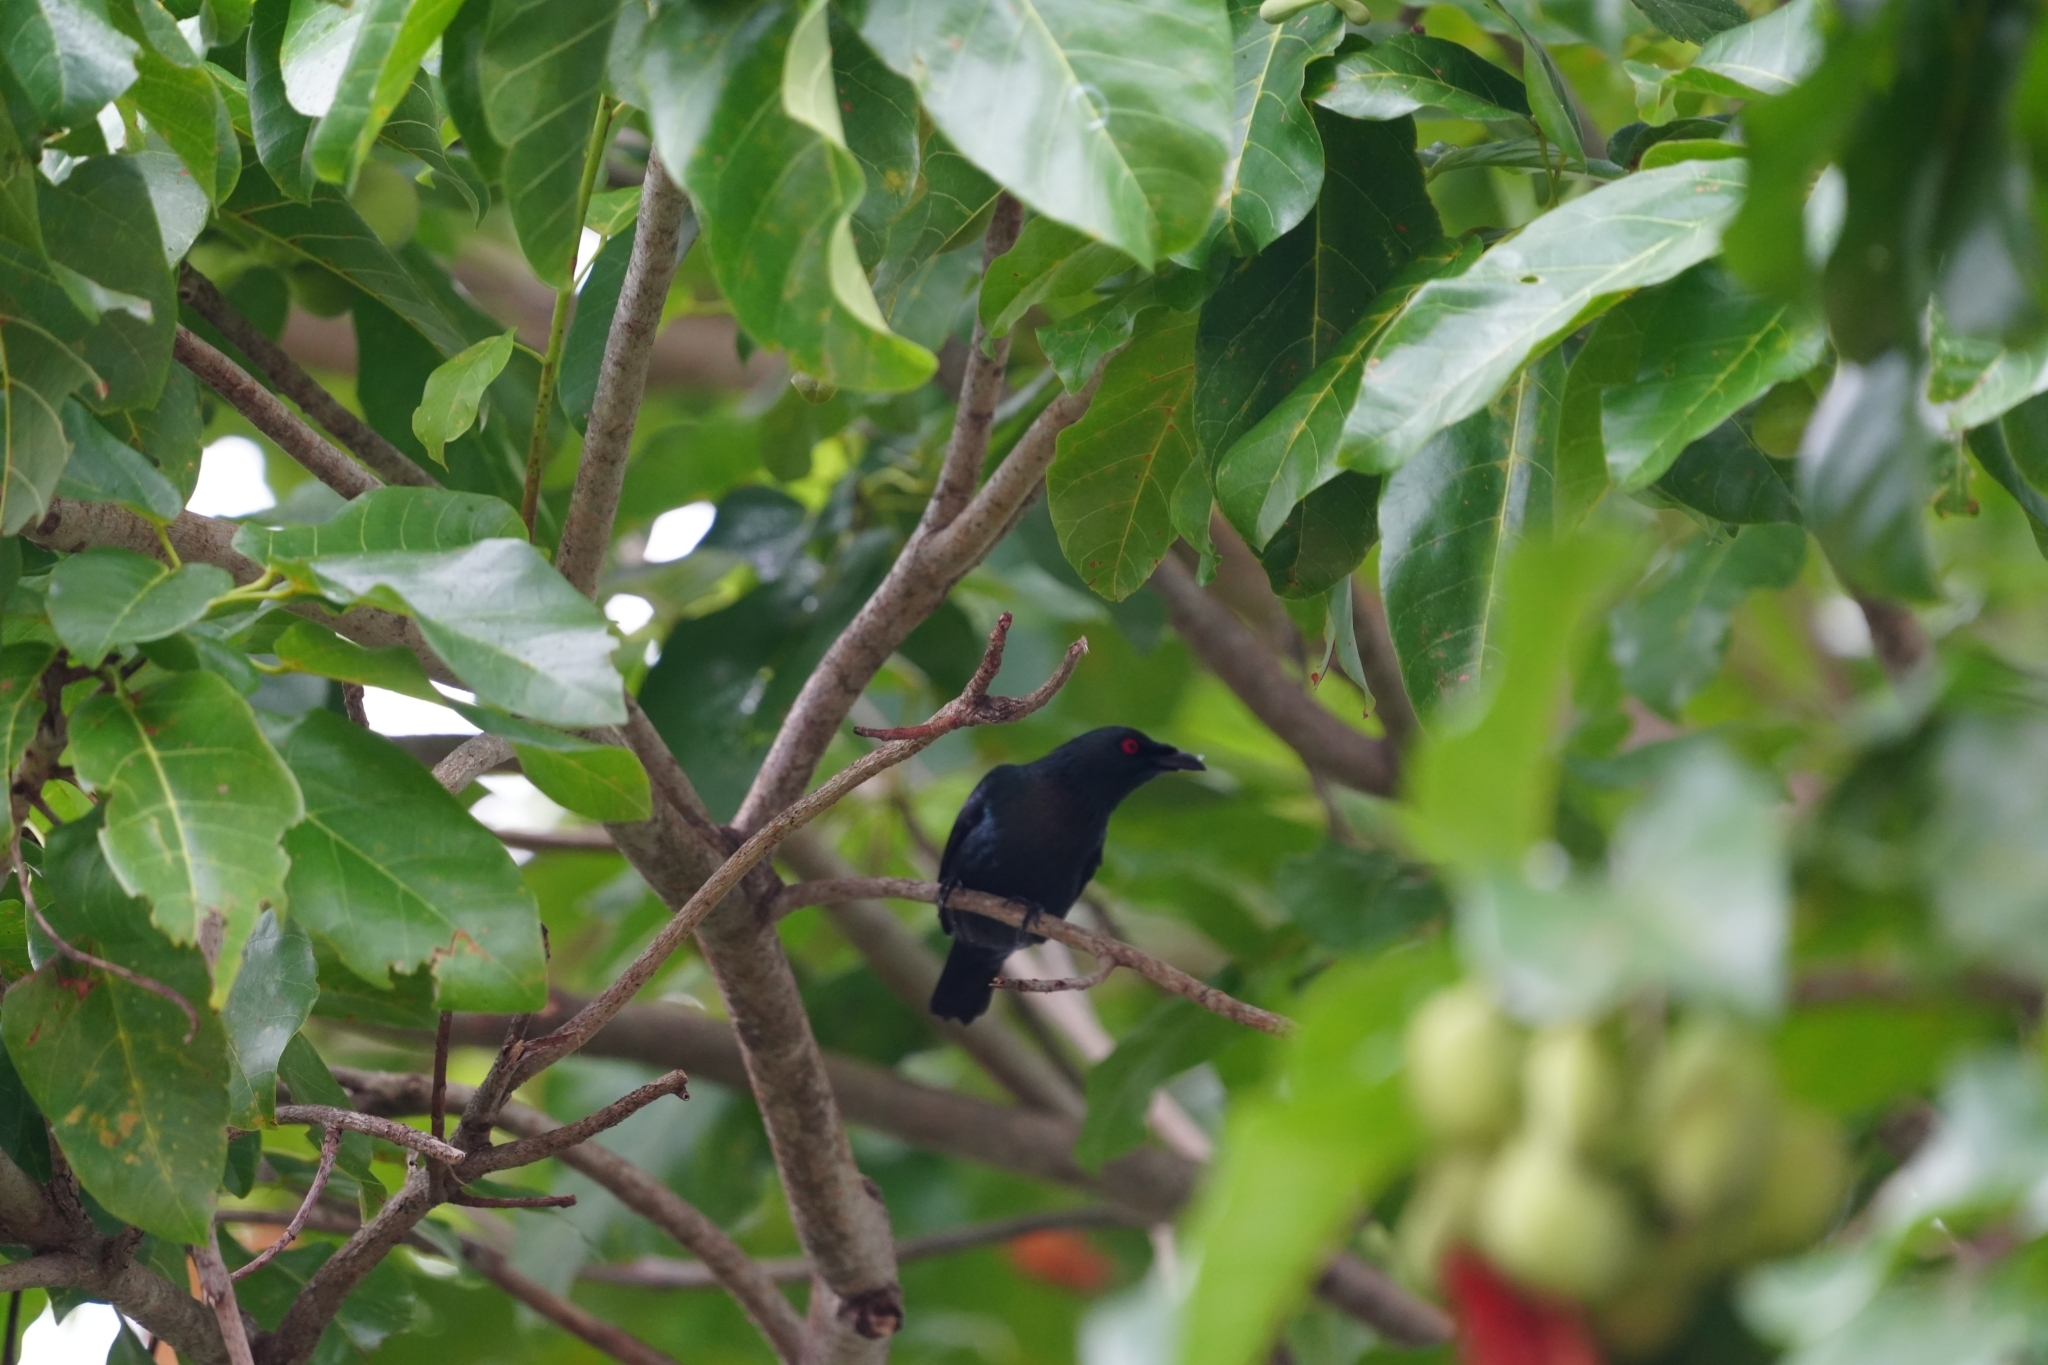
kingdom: Animalia
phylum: Chordata
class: Aves
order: Passeriformes
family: Sturnidae
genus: Aplonis
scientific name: Aplonis panayensis
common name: Asian glossy starling
